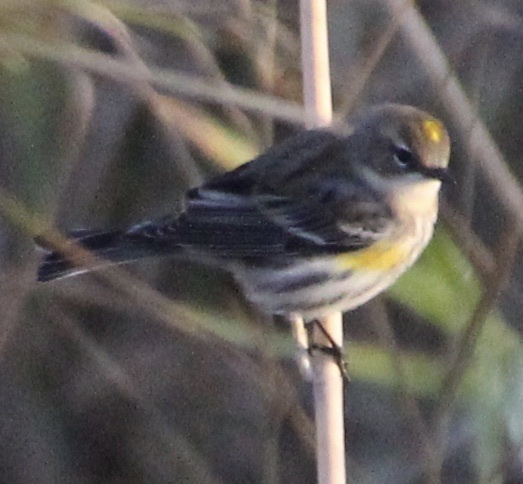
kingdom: Animalia
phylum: Chordata
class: Aves
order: Passeriformes
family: Parulidae
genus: Setophaga
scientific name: Setophaga coronata
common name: Myrtle warbler
